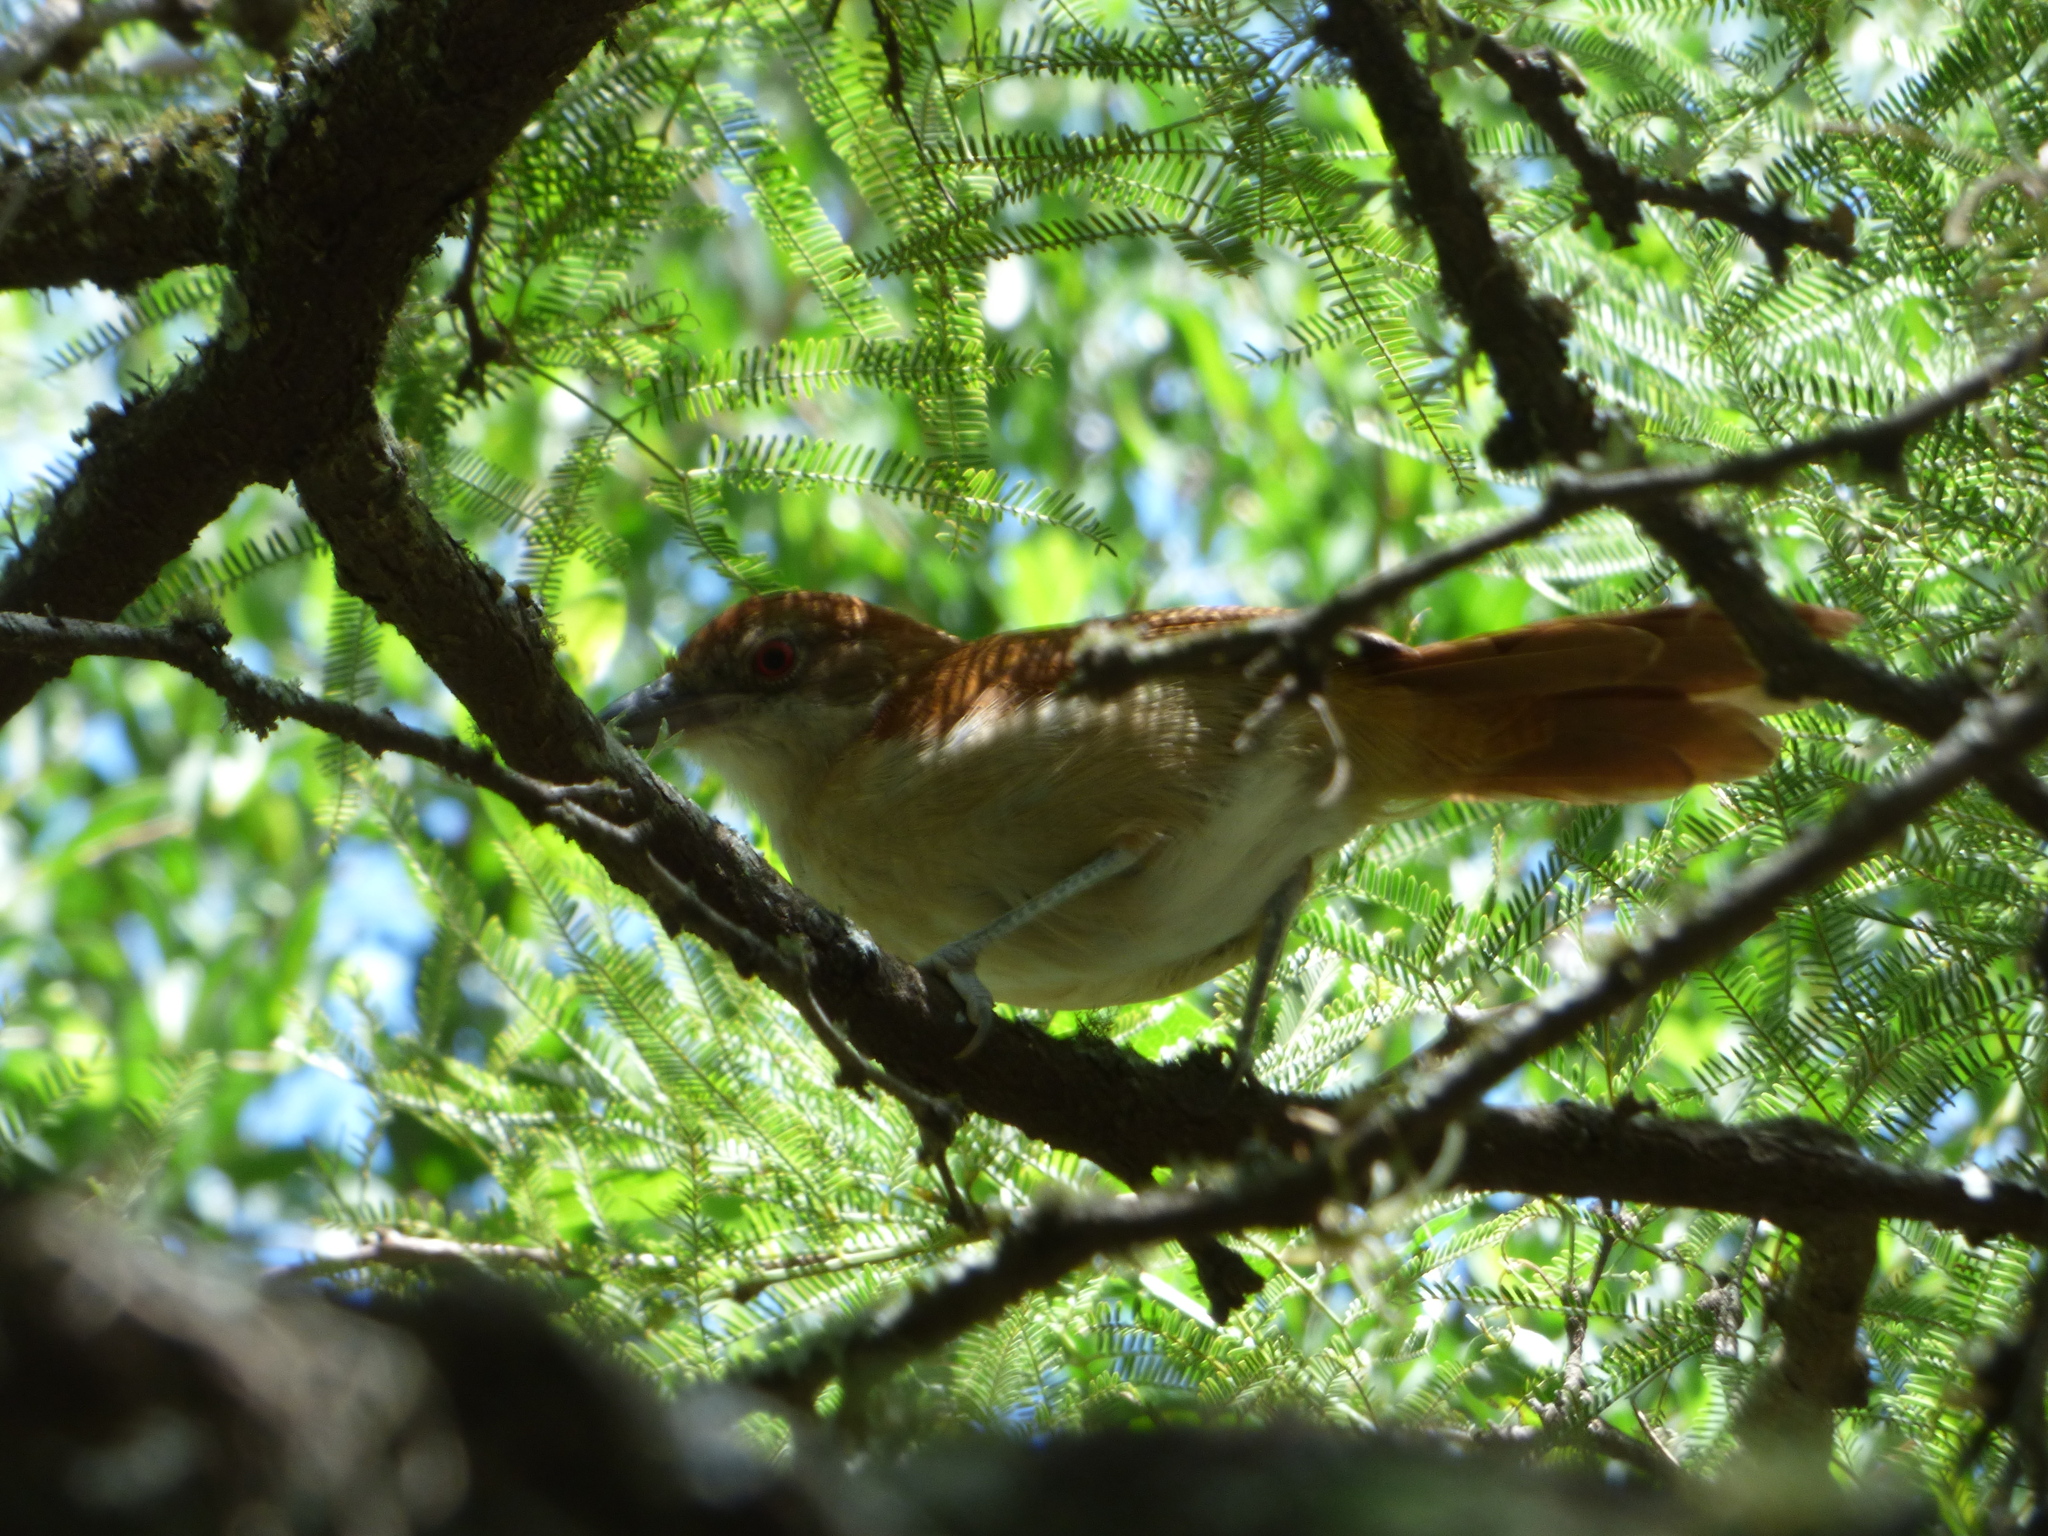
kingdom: Animalia
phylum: Chordata
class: Aves
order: Passeriformes
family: Thamnophilidae
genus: Taraba
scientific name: Taraba major
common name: Great antshrike
